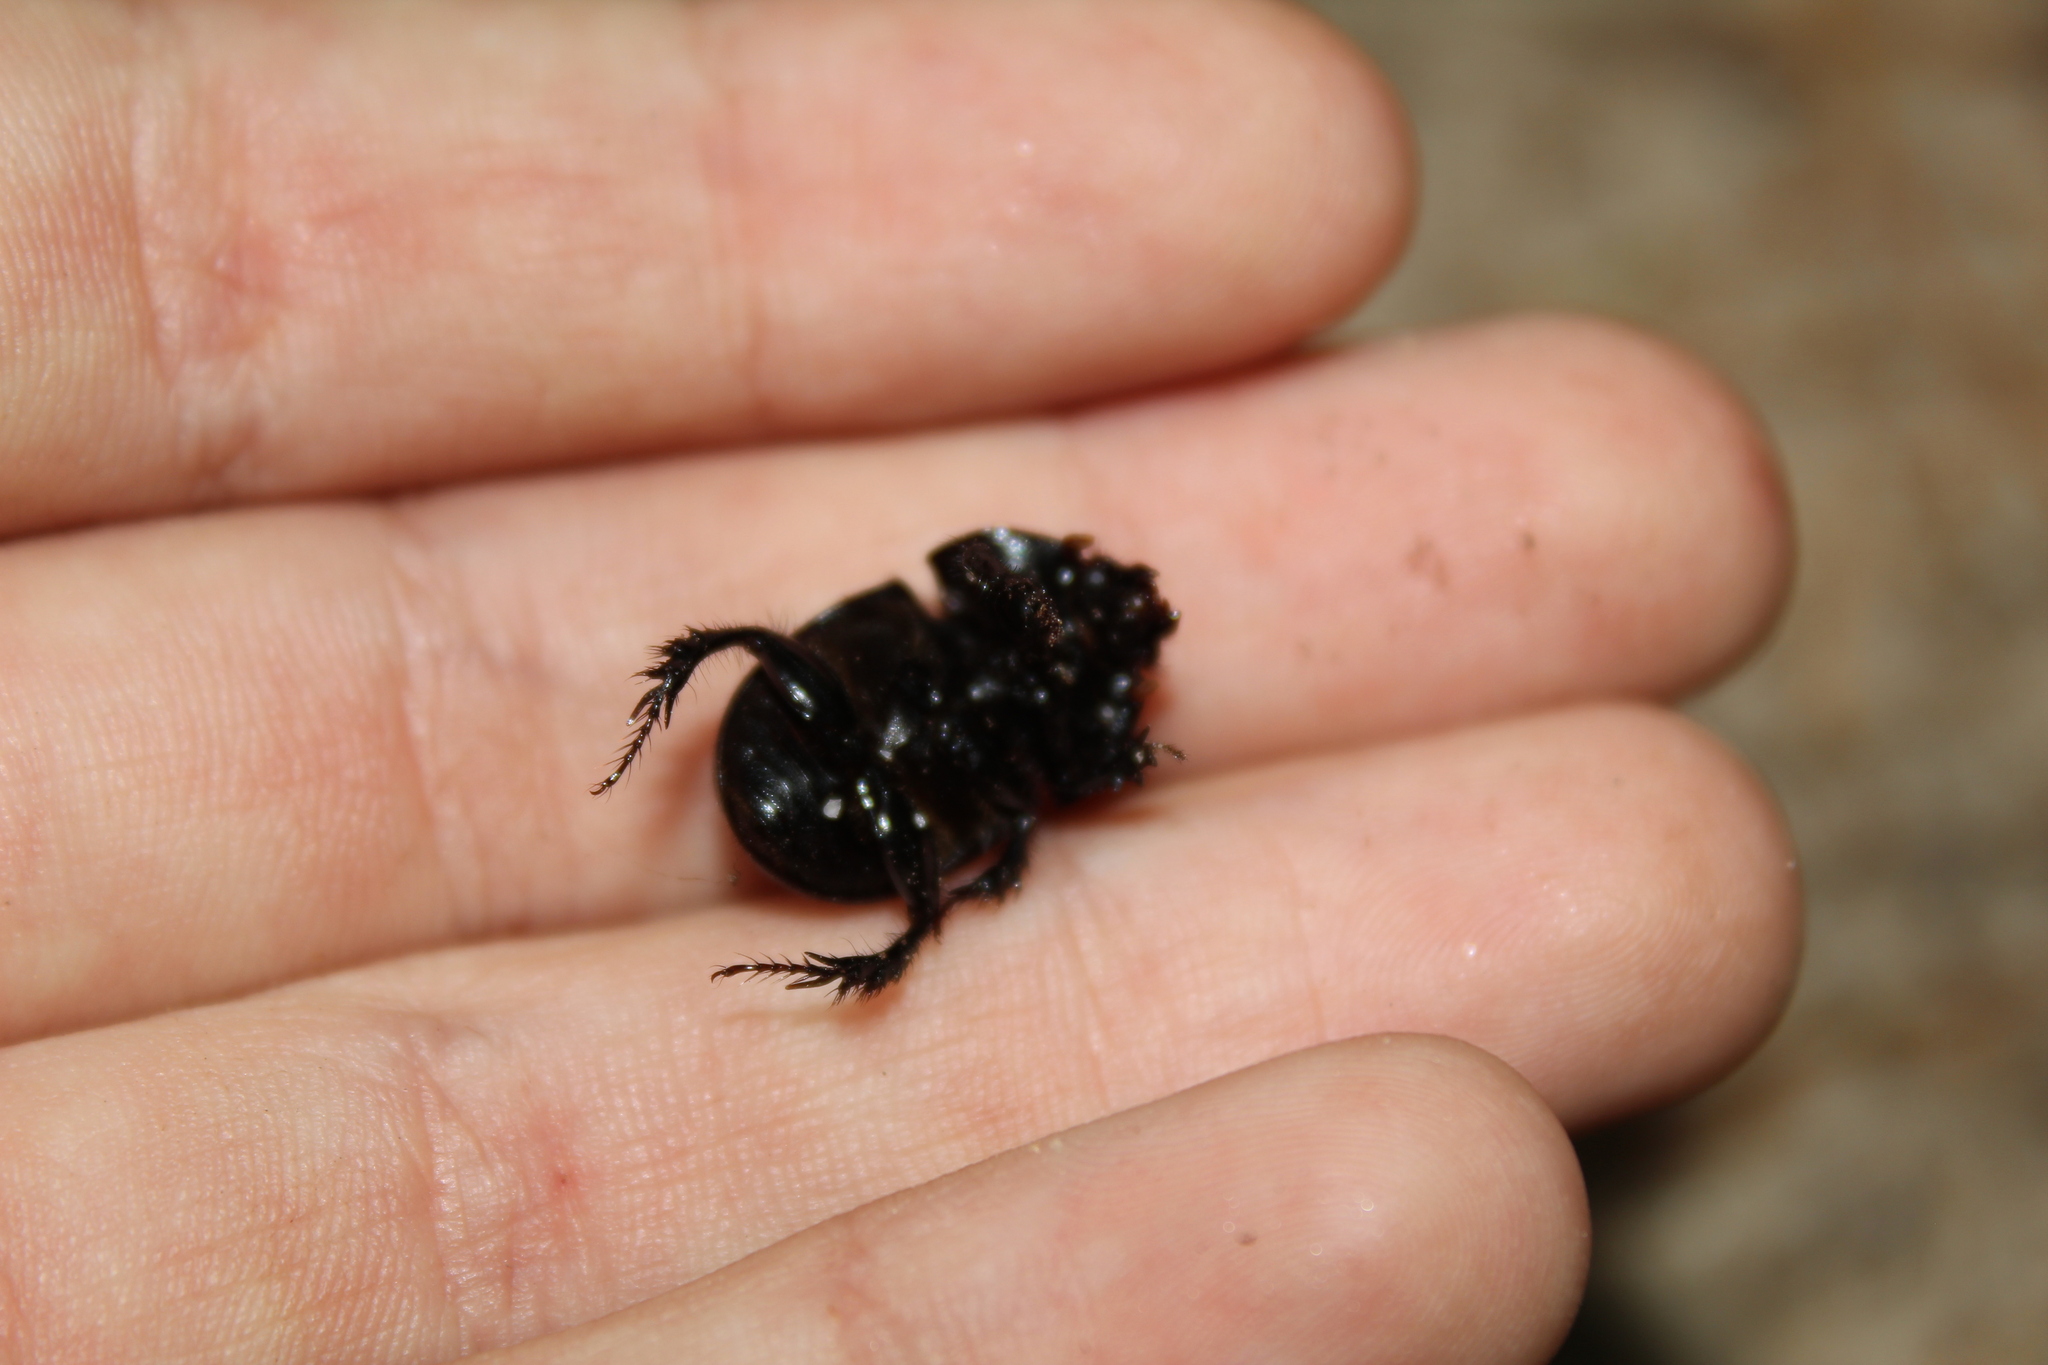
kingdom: Animalia
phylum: Arthropoda
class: Insecta
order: Coleoptera
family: Geotrupidae
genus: Anoplotrupes
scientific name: Anoplotrupes balyi
